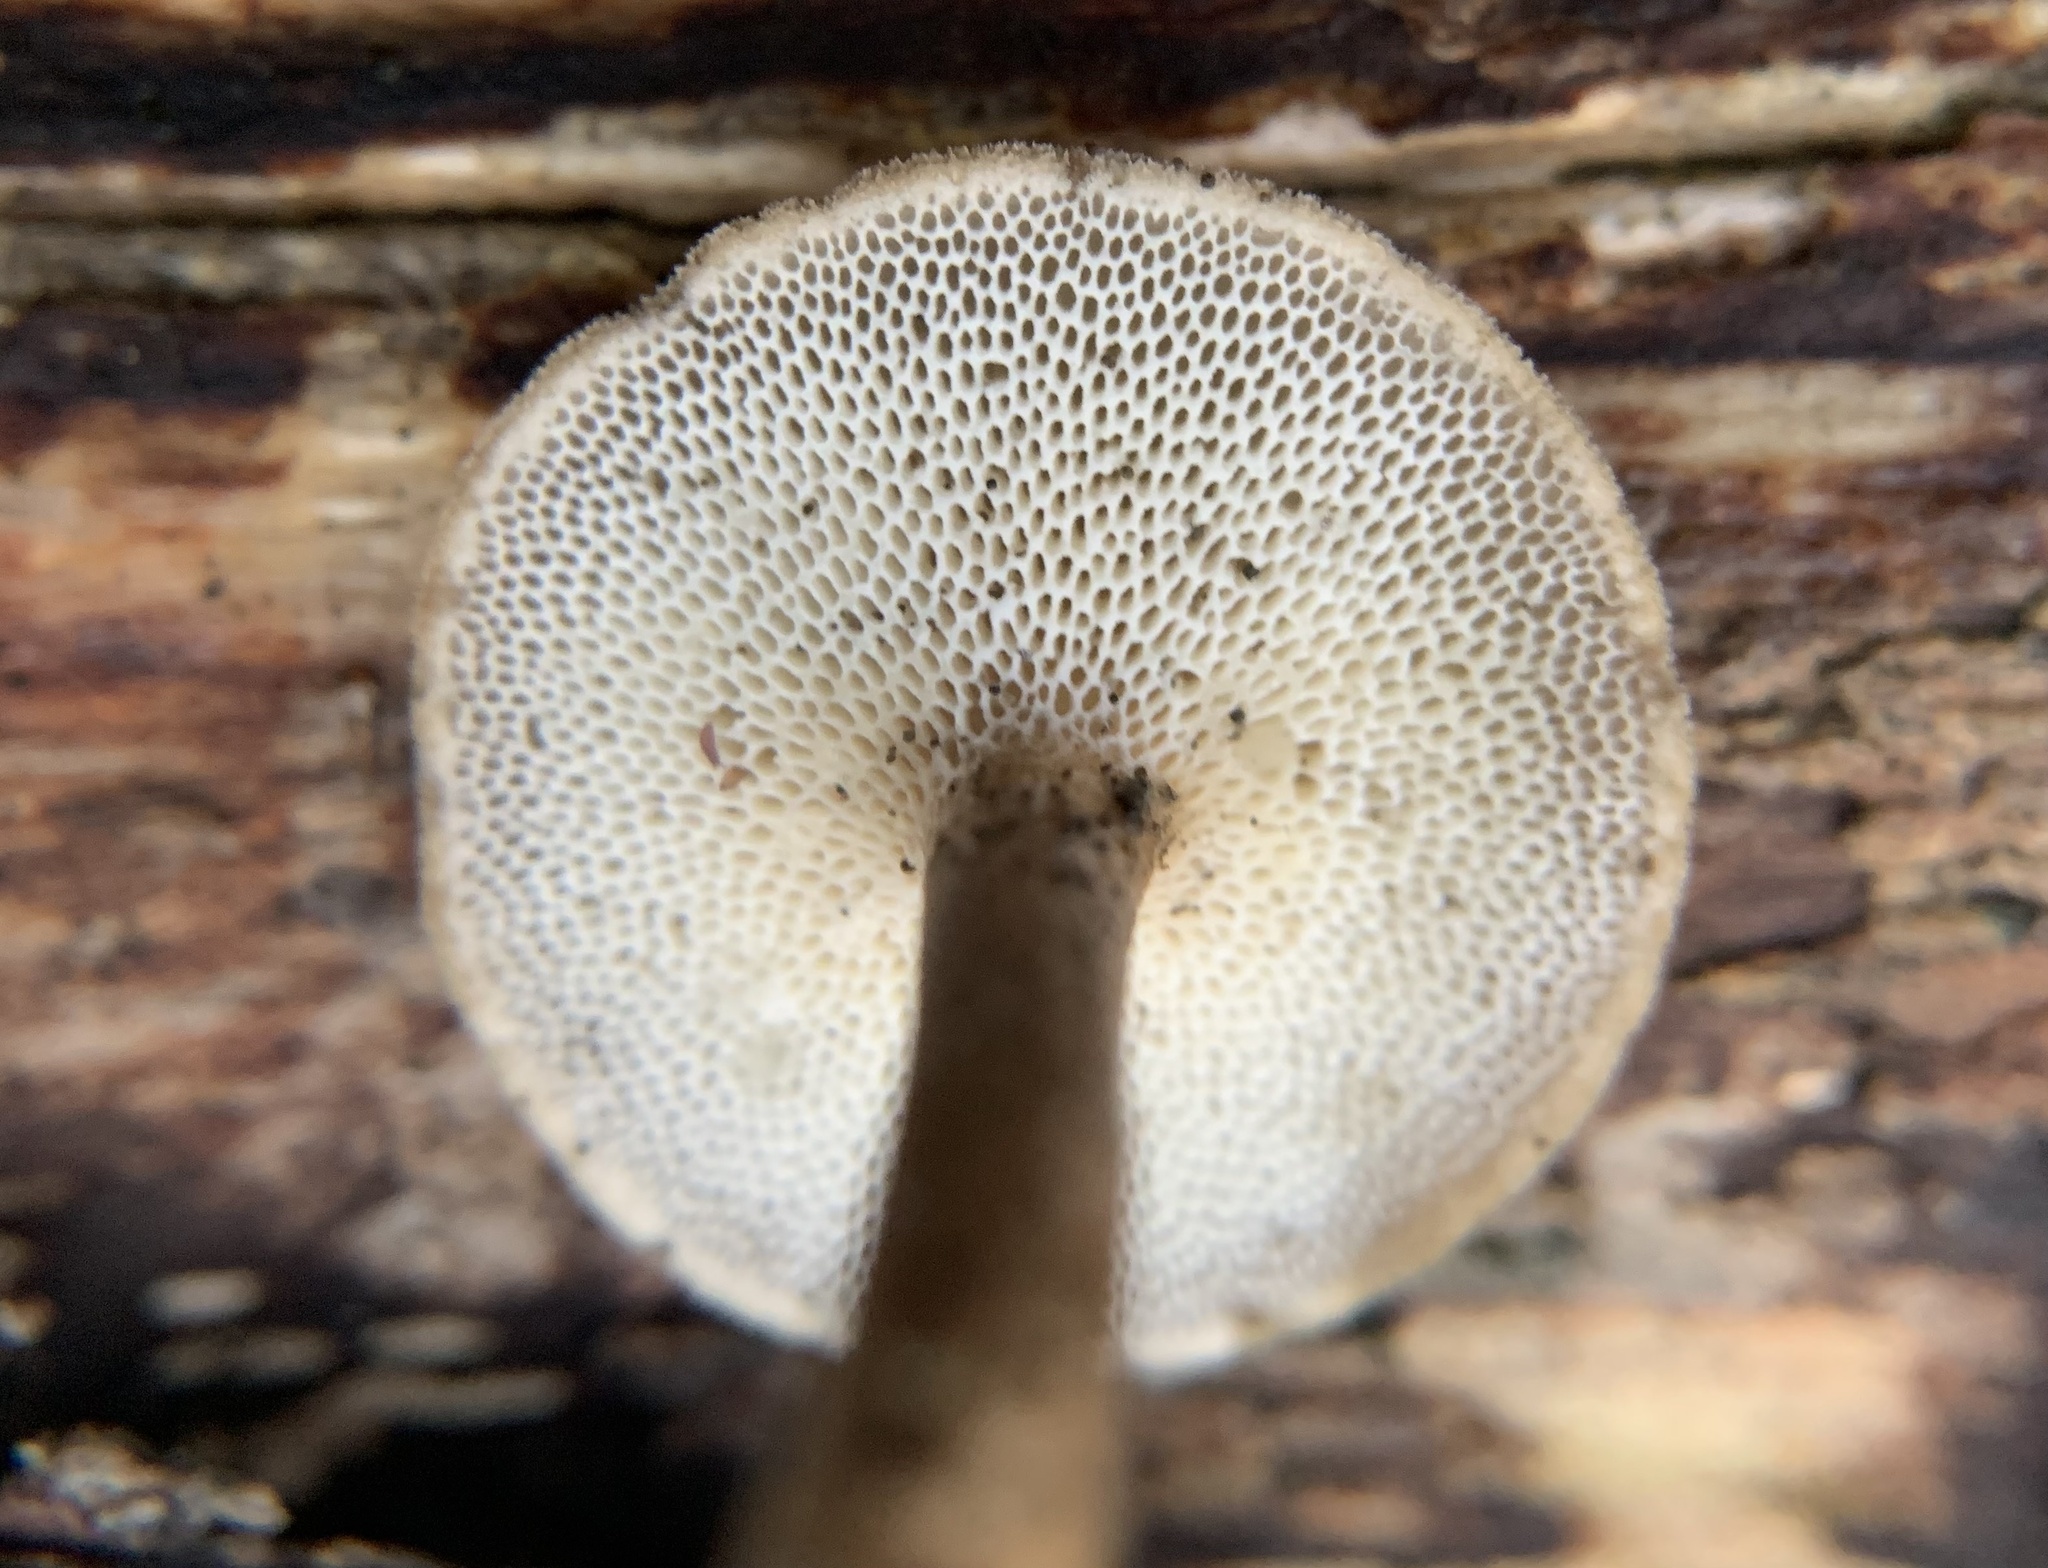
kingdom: Fungi
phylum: Basidiomycota
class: Agaricomycetes
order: Polyporales
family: Polyporaceae
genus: Lentinus
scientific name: Lentinus brumalis
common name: Winter polypore
